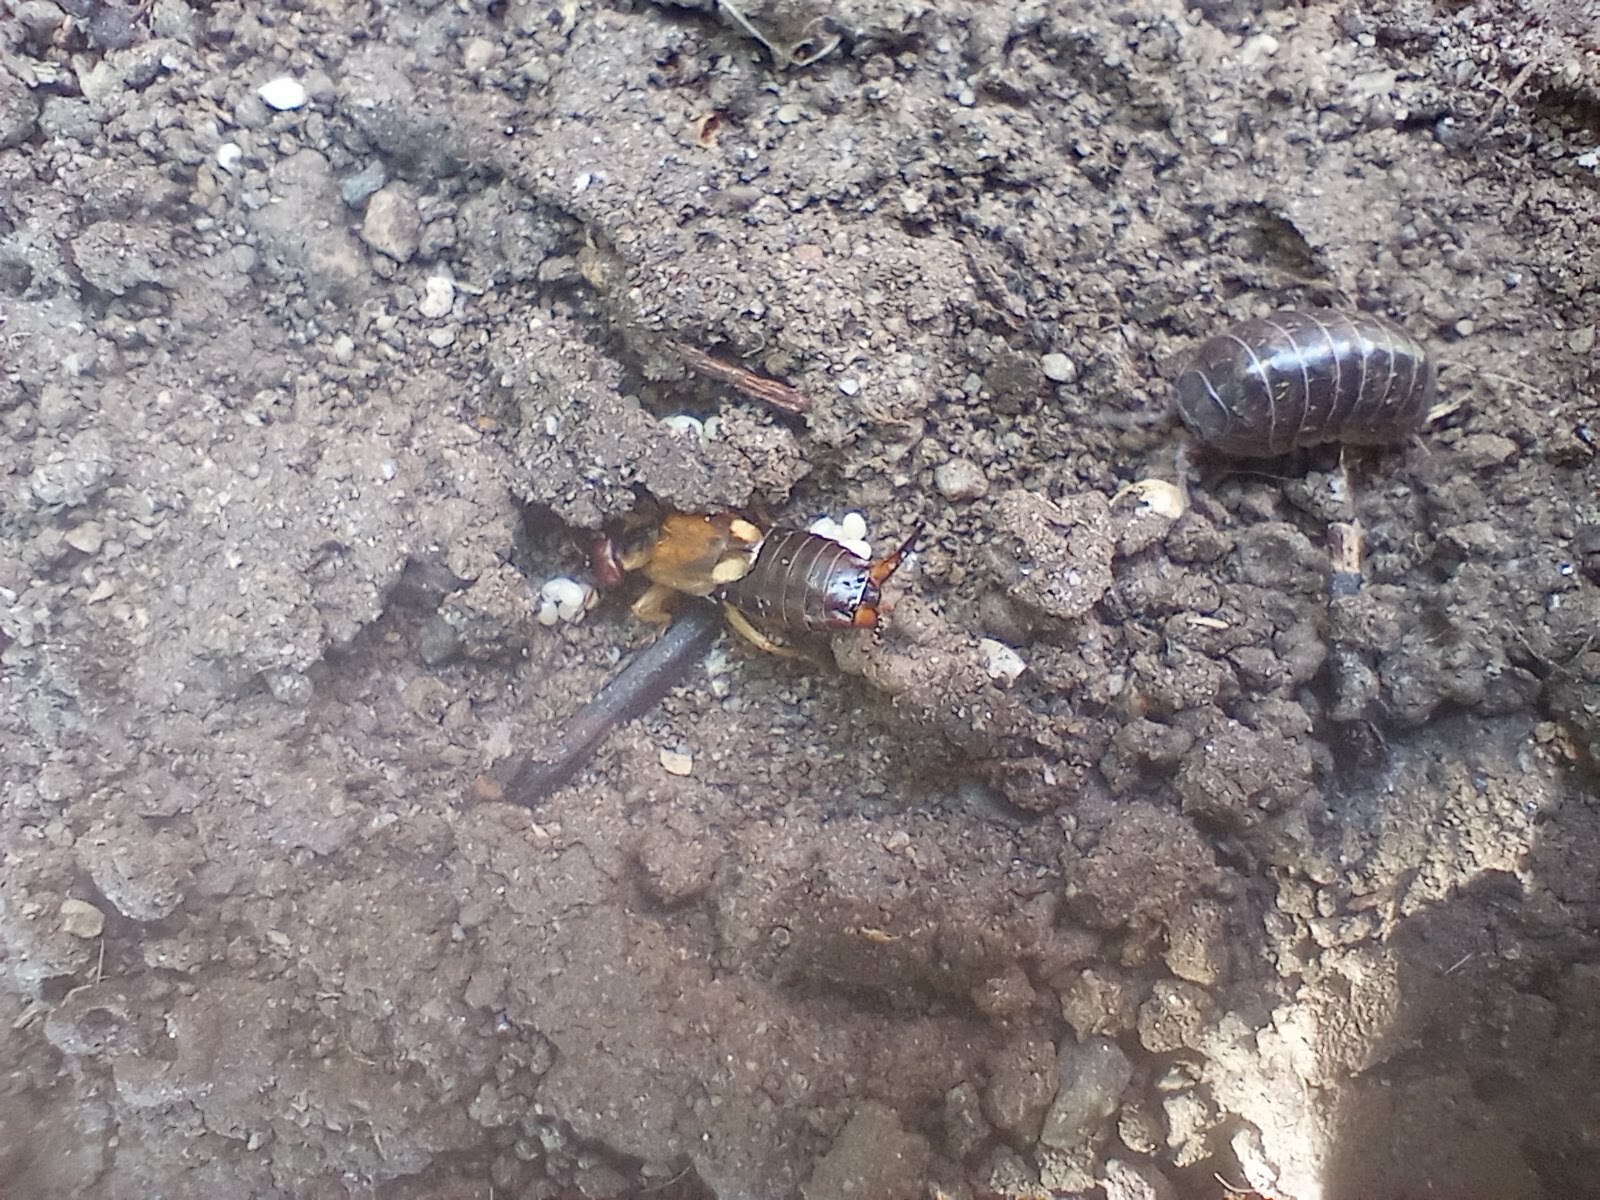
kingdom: Animalia
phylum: Arthropoda
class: Insecta
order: Dermaptera
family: Forficulidae
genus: Forficula
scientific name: Forficula
